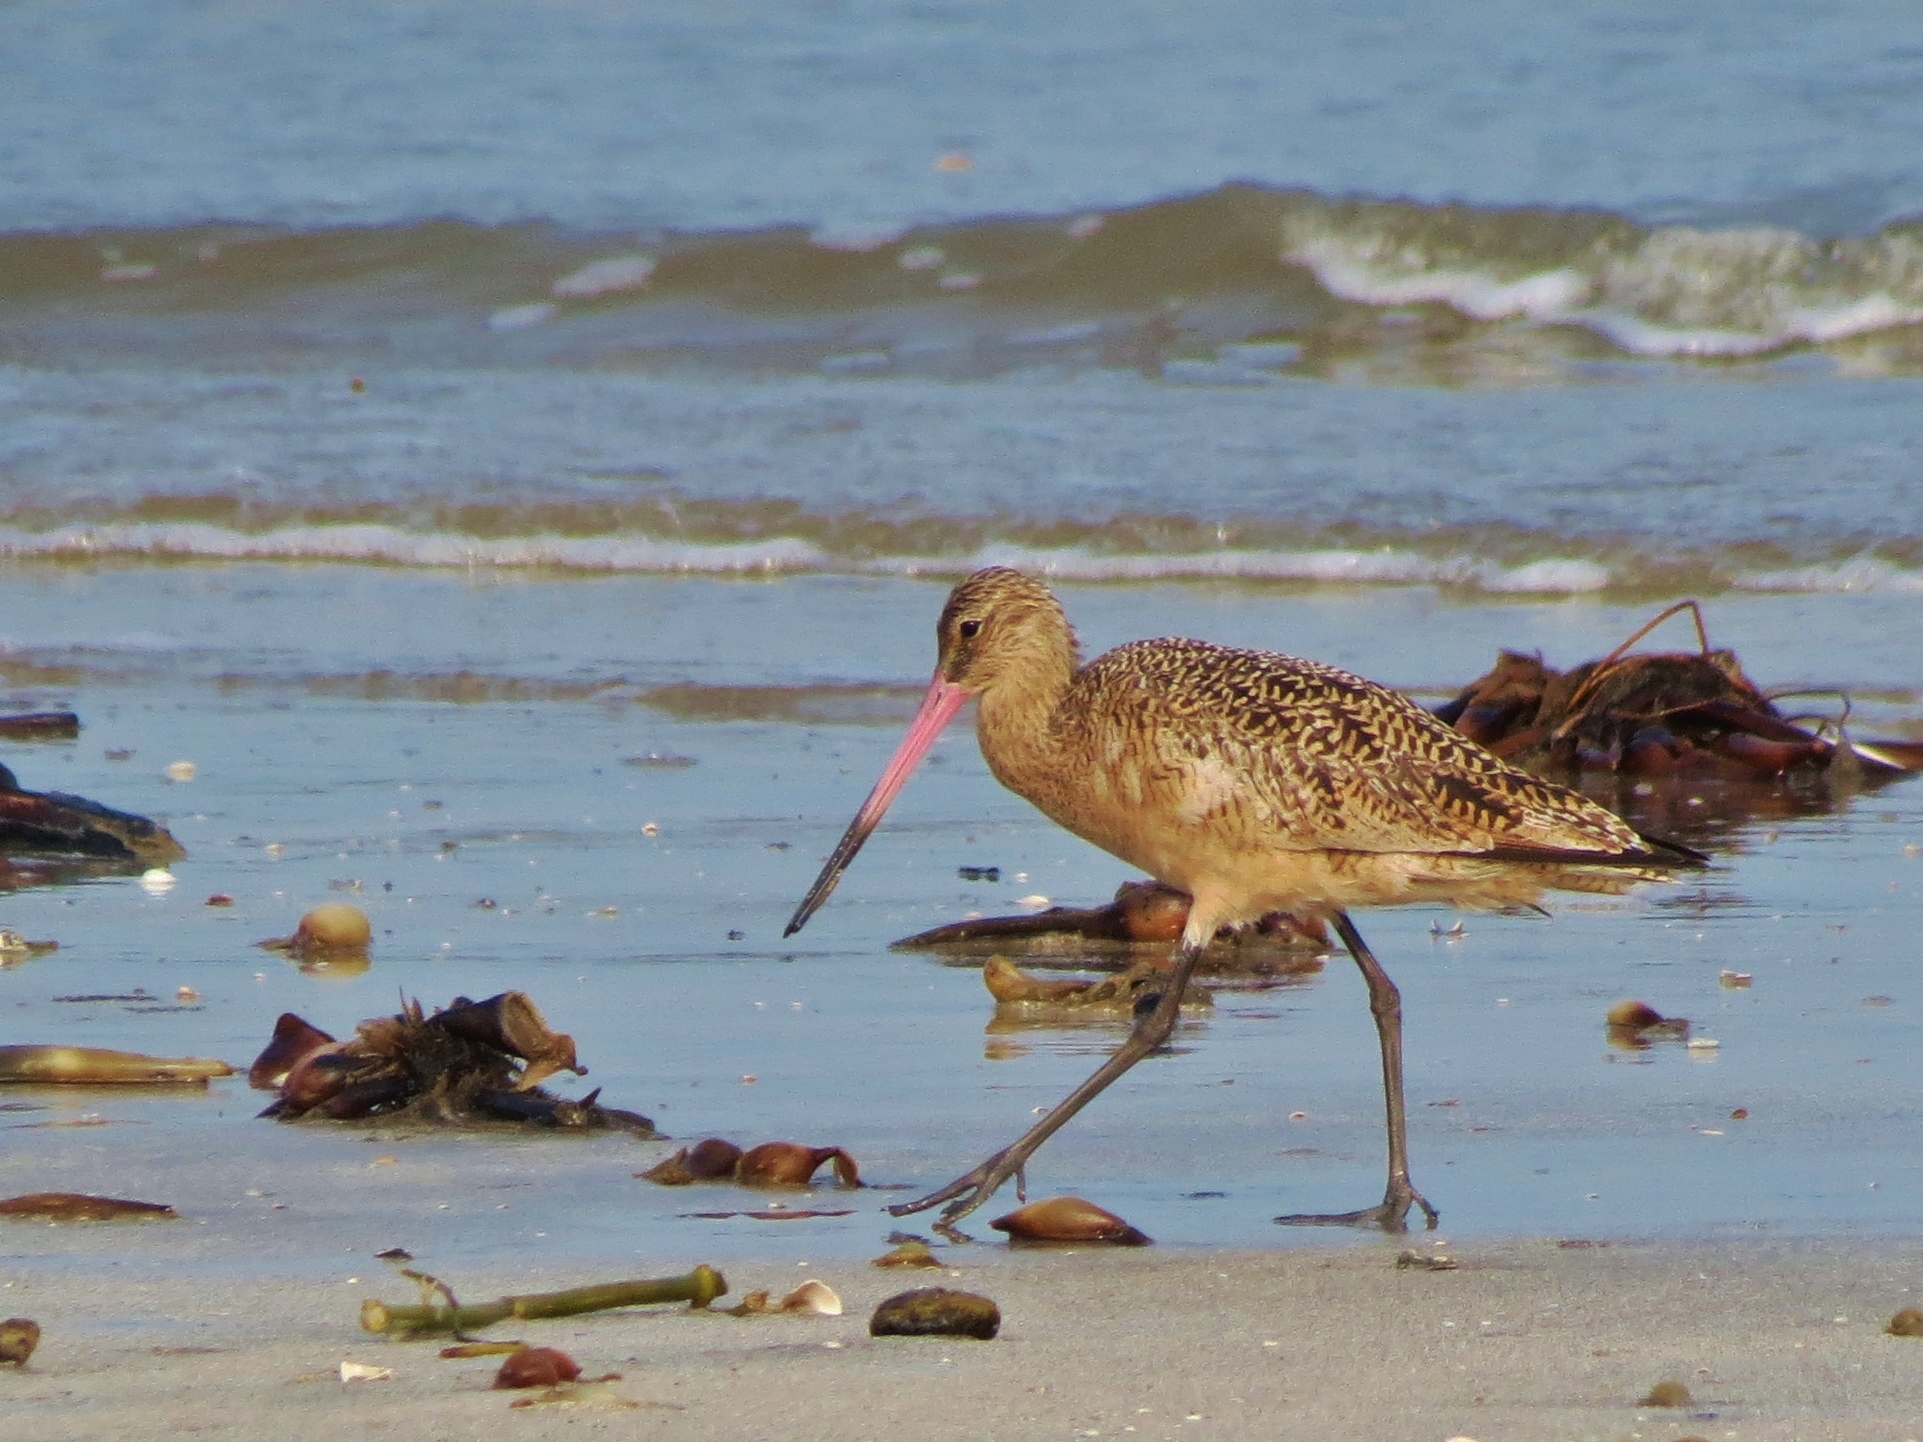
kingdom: Animalia
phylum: Chordata
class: Aves
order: Charadriiformes
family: Scolopacidae
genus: Limosa
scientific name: Limosa fedoa
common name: Marbled godwit
